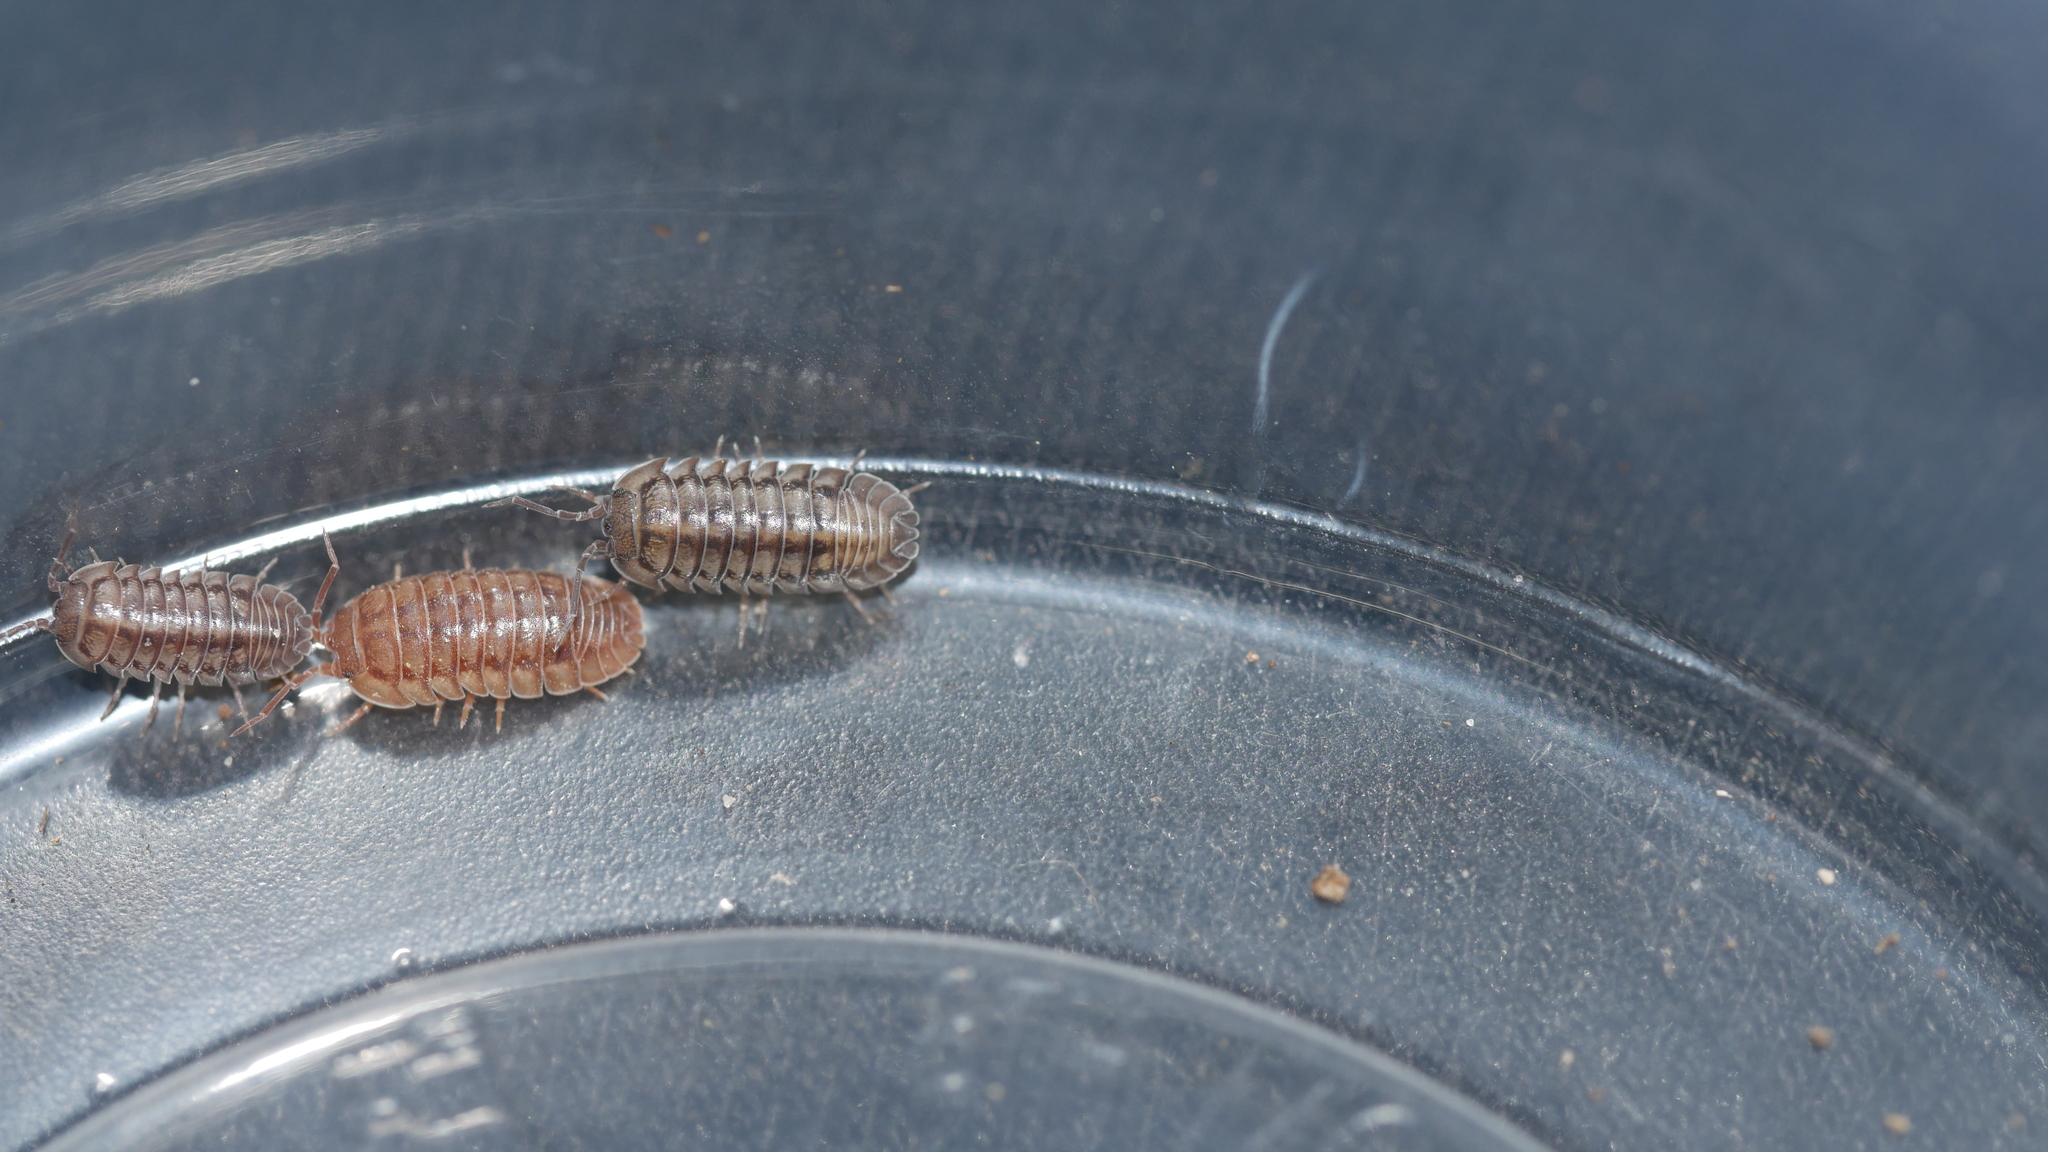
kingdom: Animalia
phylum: Arthropoda
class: Malacostraca
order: Isopoda
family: Armadillidiidae
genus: Armadillidium
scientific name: Armadillidium nasatum
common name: Isopod
